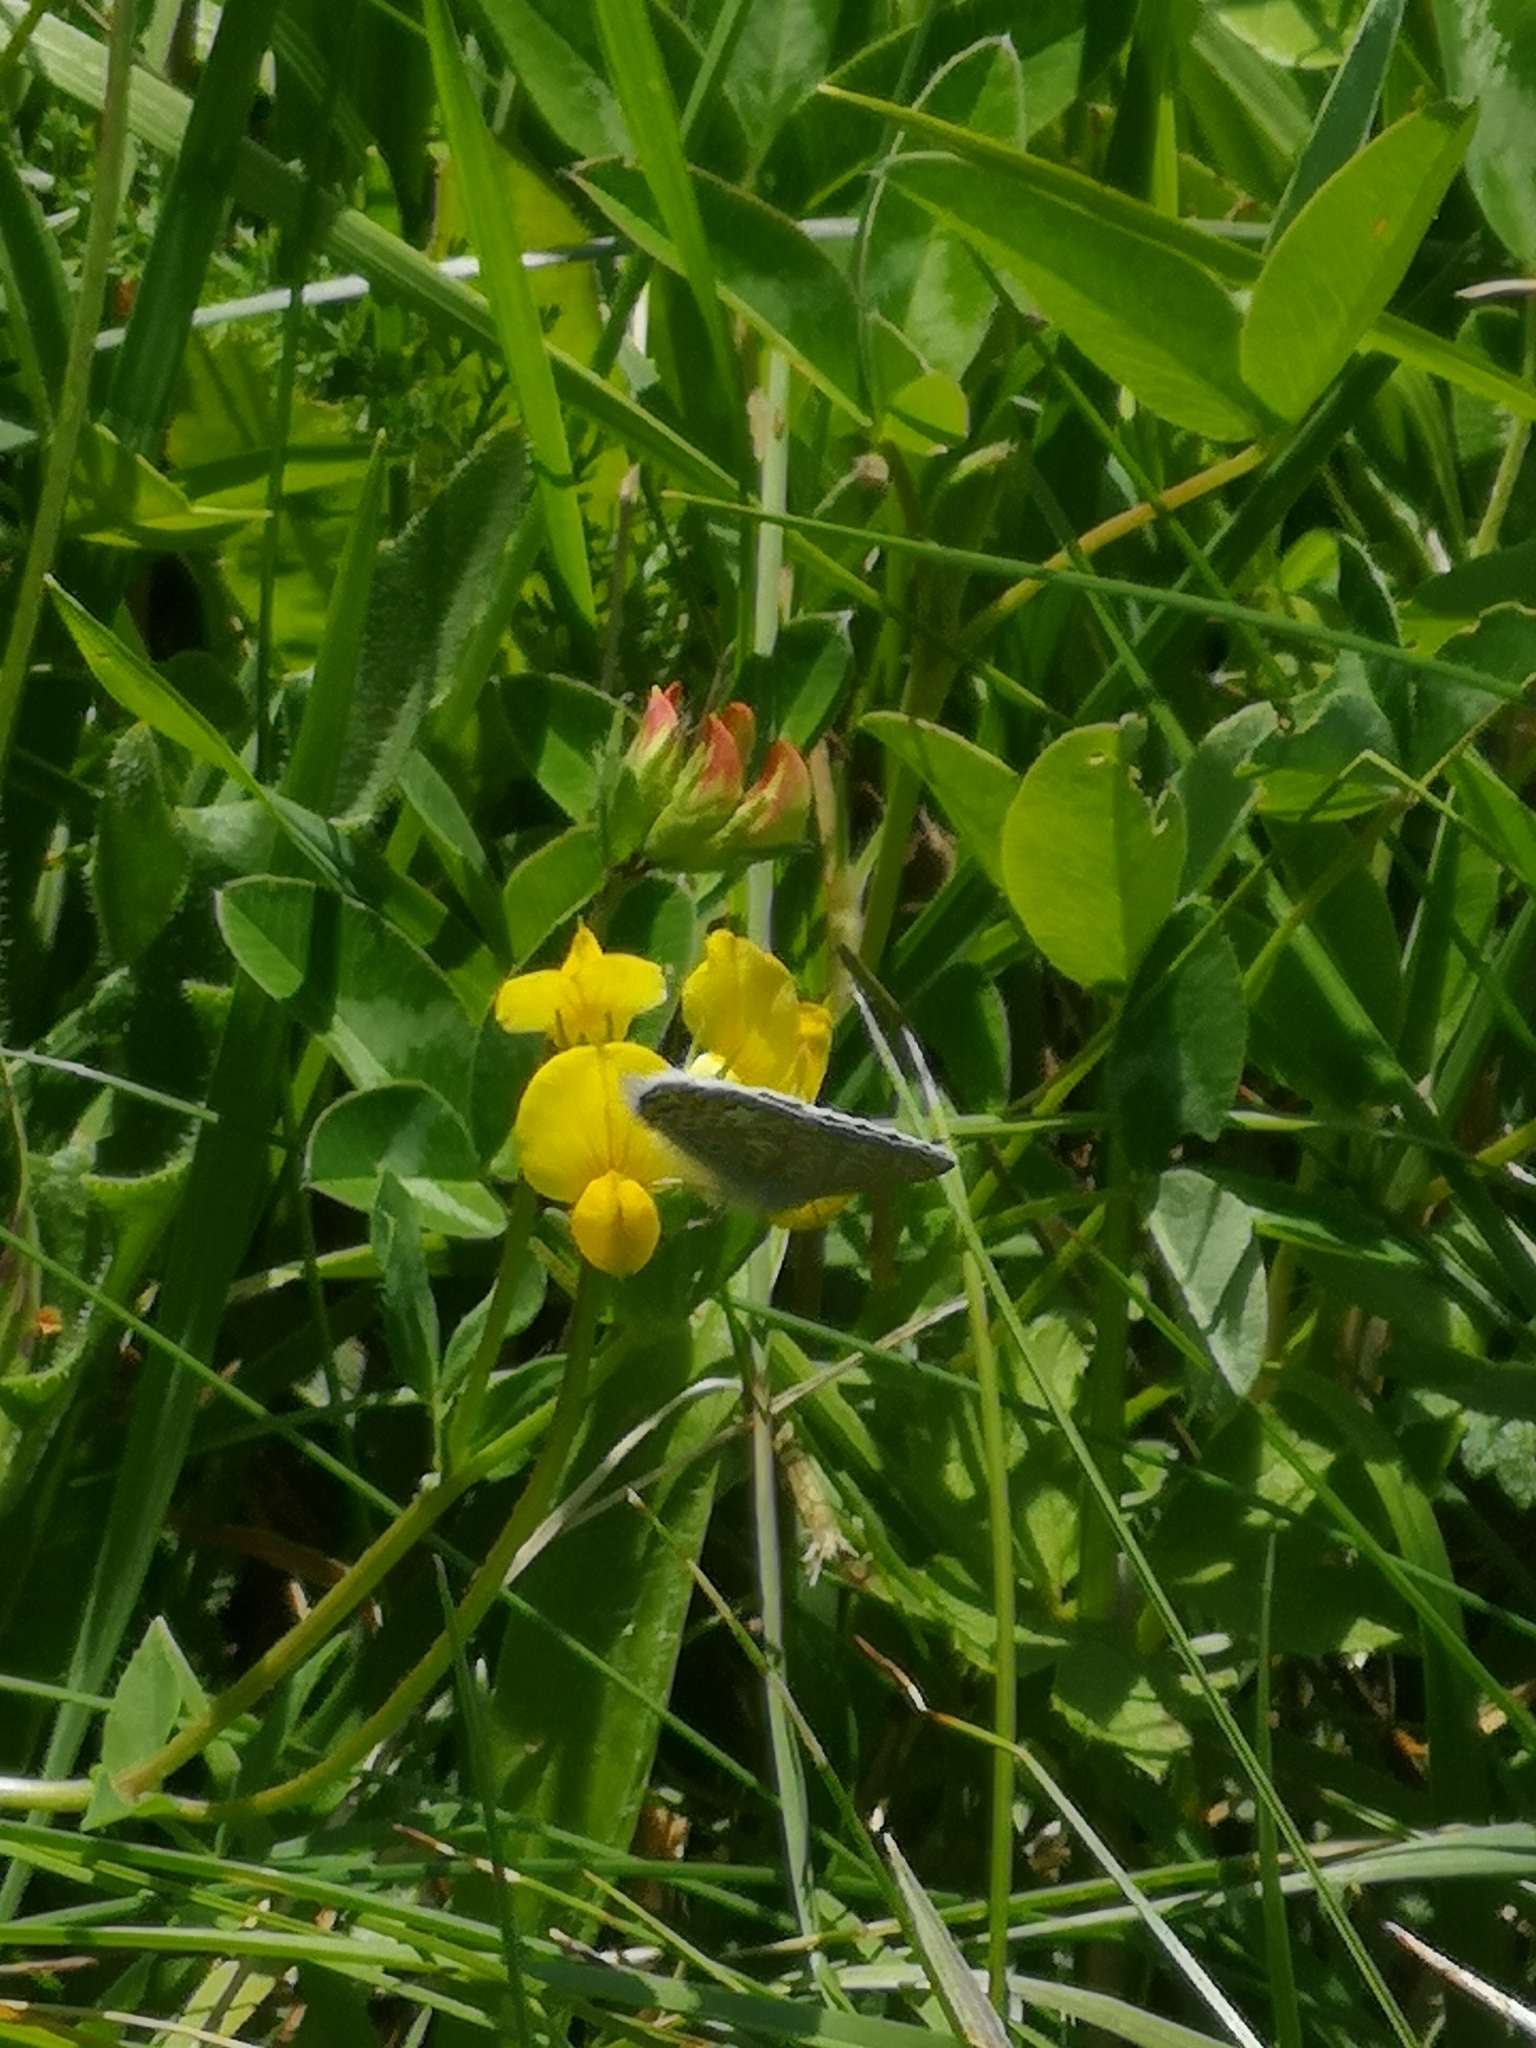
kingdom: Animalia
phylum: Arthropoda
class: Insecta
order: Lepidoptera
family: Lycaenidae
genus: Polyommatus
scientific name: Polyommatus icarus
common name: Common blue
